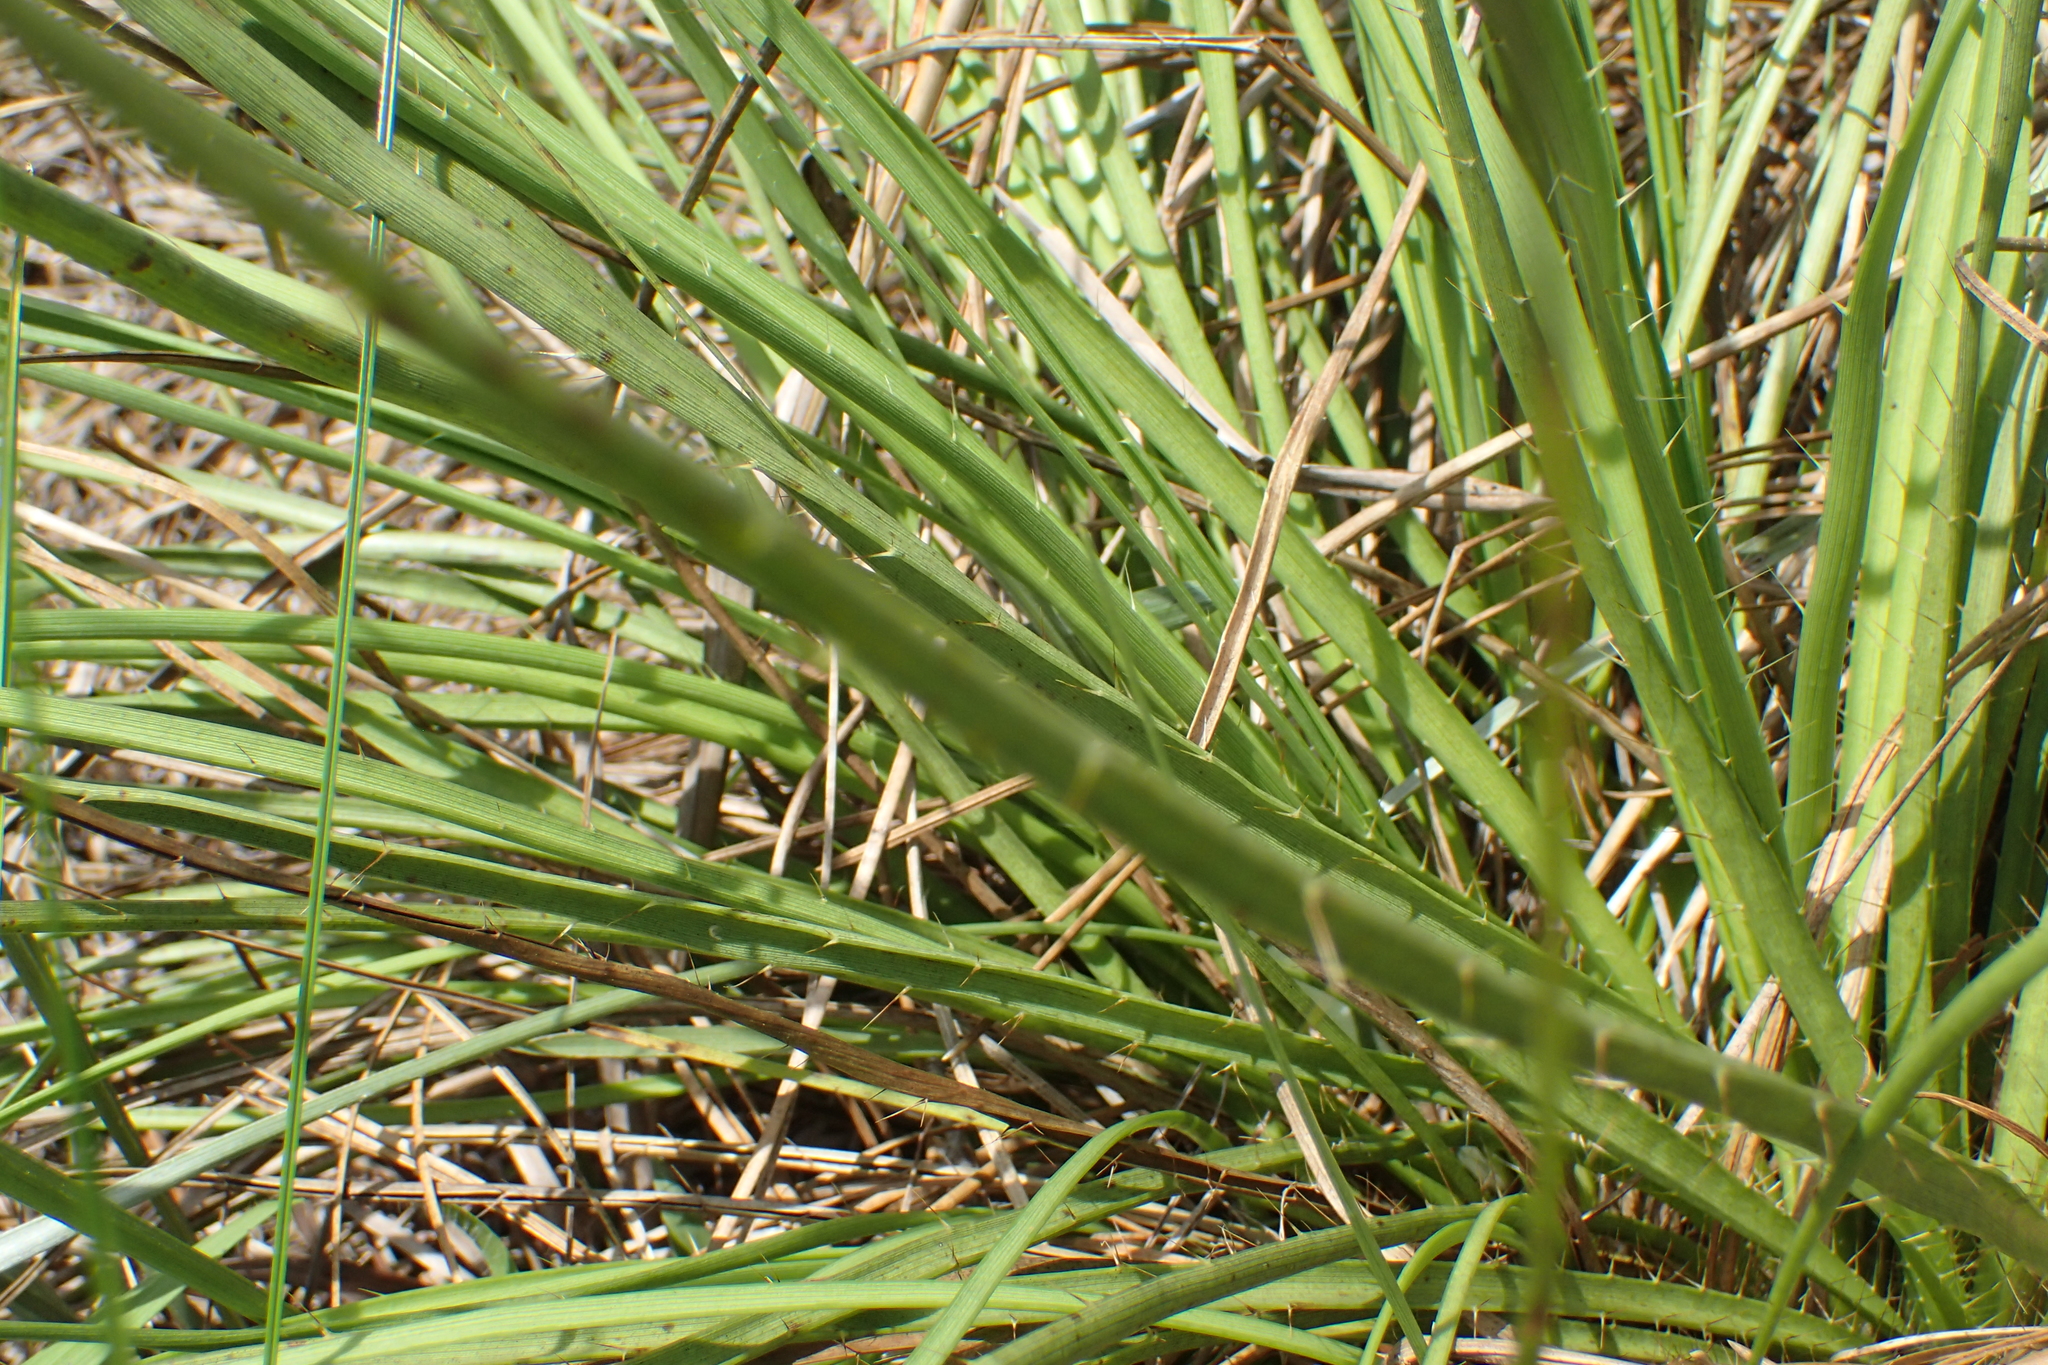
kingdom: Plantae
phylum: Tracheophyta
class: Magnoliopsida
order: Apiales
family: Apiaceae
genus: Eryngium
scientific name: Eryngium yuccifolium
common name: Button eryngo
